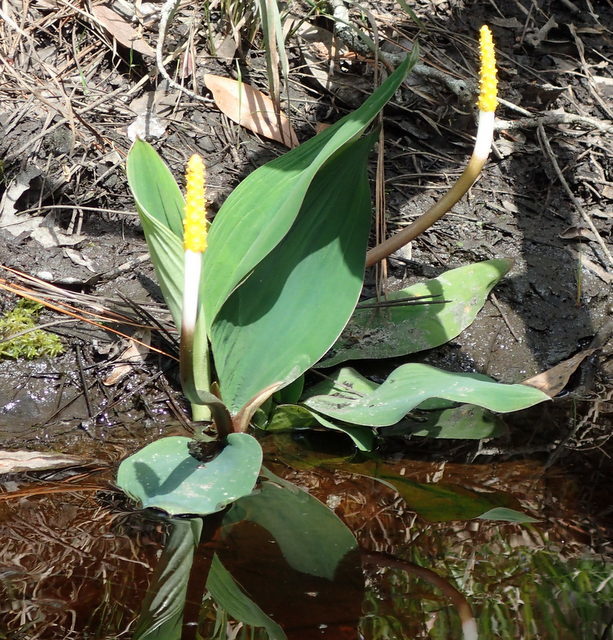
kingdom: Plantae
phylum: Tracheophyta
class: Liliopsida
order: Alismatales
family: Araceae
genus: Orontium
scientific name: Orontium aquaticum
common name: Golden-club
